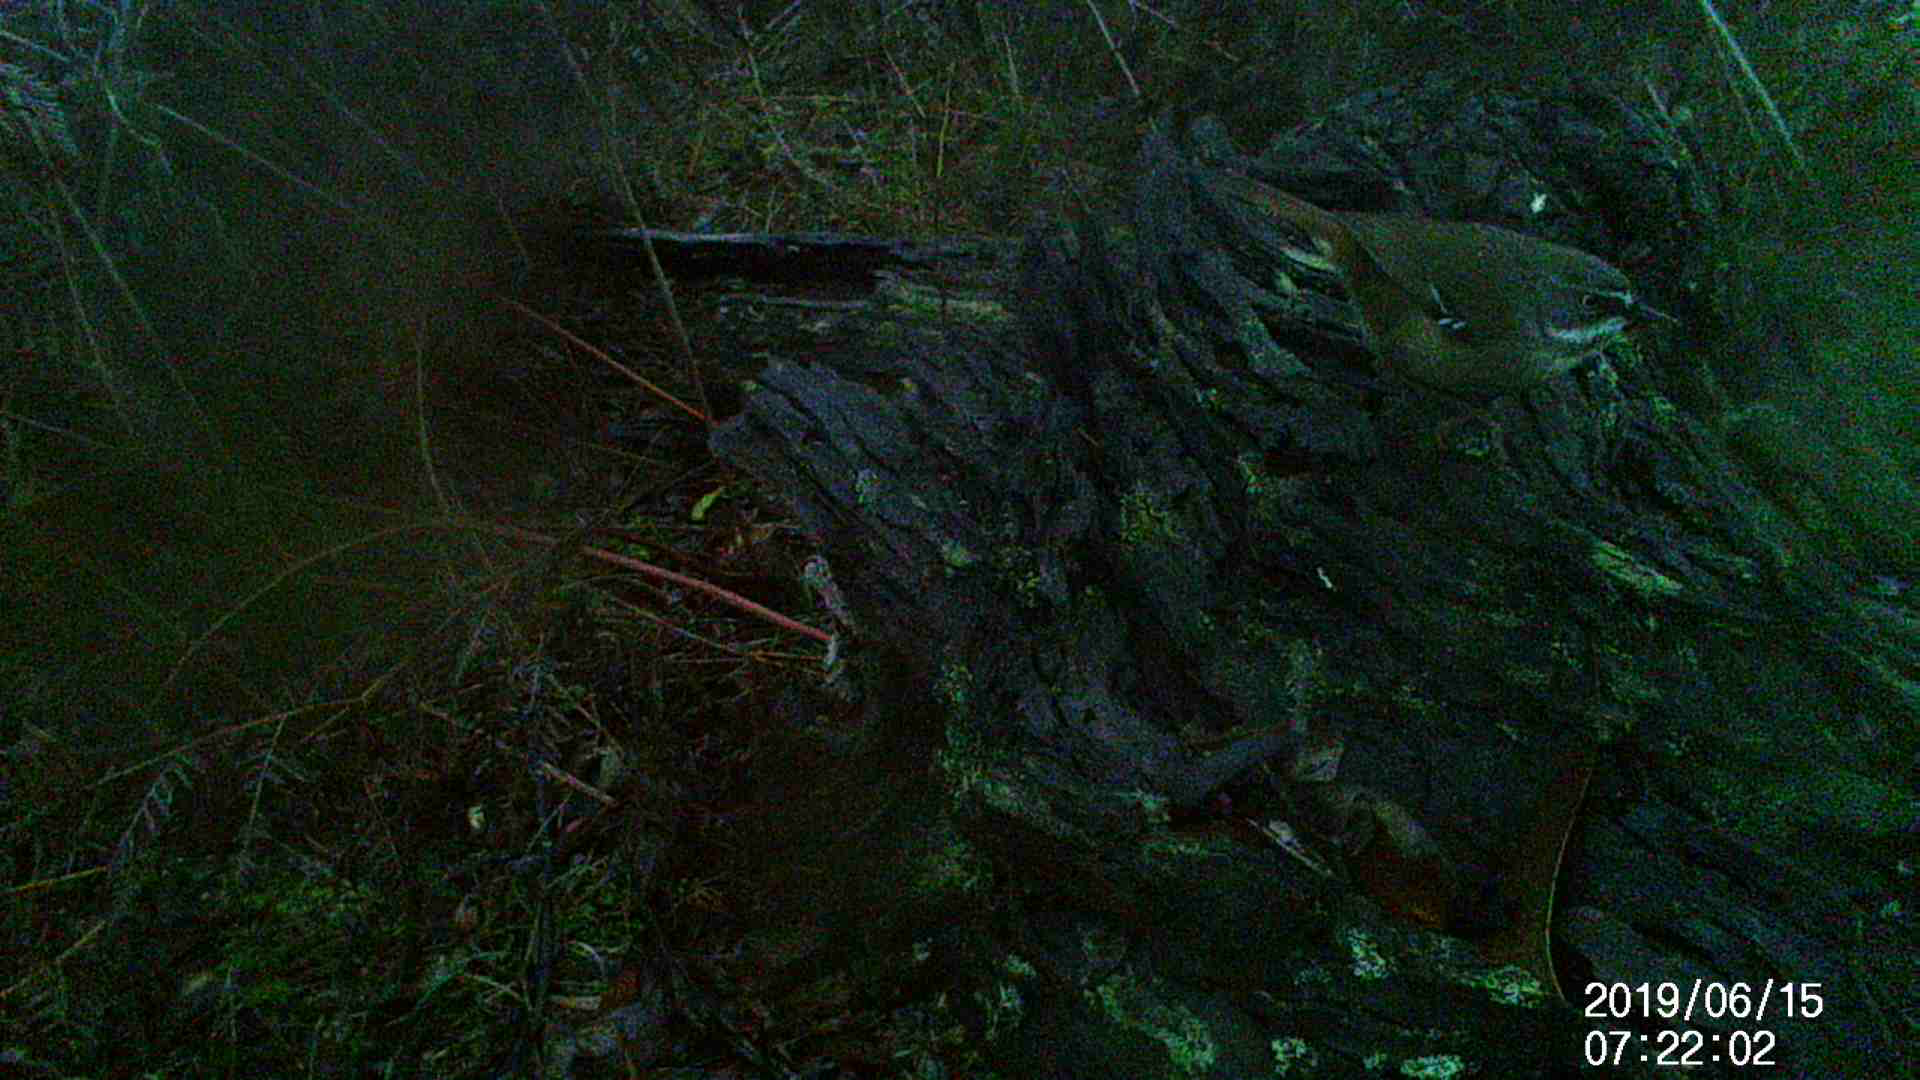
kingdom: Animalia
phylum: Chordata
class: Aves
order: Passeriformes
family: Acanthizidae
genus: Sericornis
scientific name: Sericornis frontalis
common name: White-browed scrubwren
